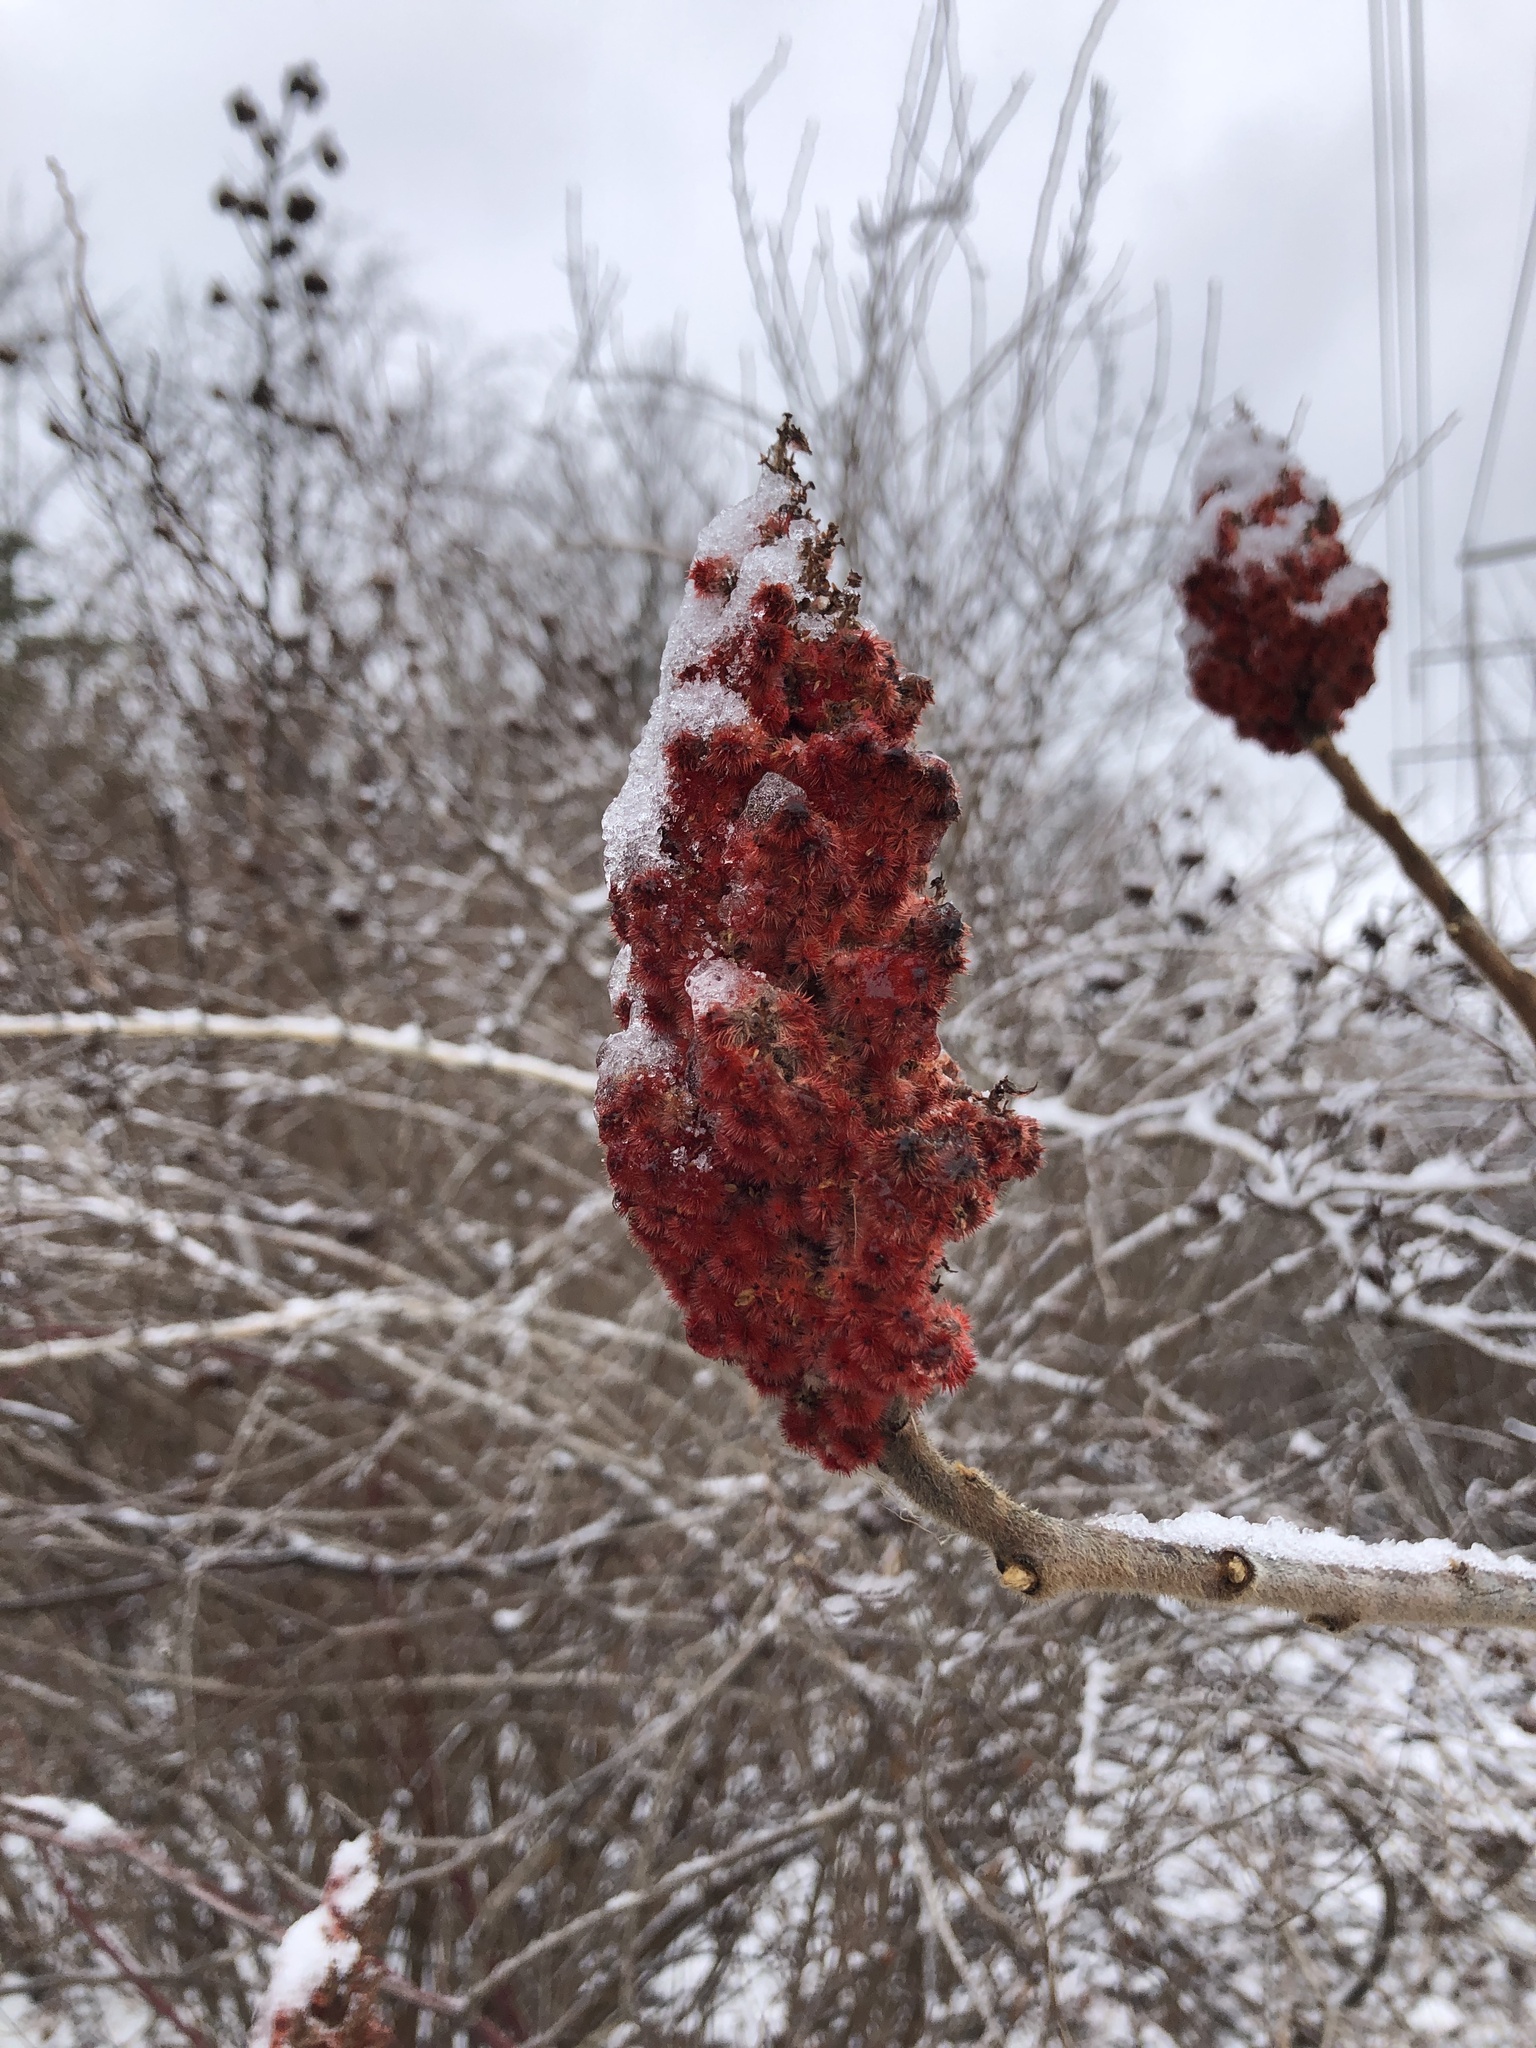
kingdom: Plantae
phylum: Tracheophyta
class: Magnoliopsida
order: Sapindales
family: Anacardiaceae
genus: Rhus
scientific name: Rhus typhina
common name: Staghorn sumac
